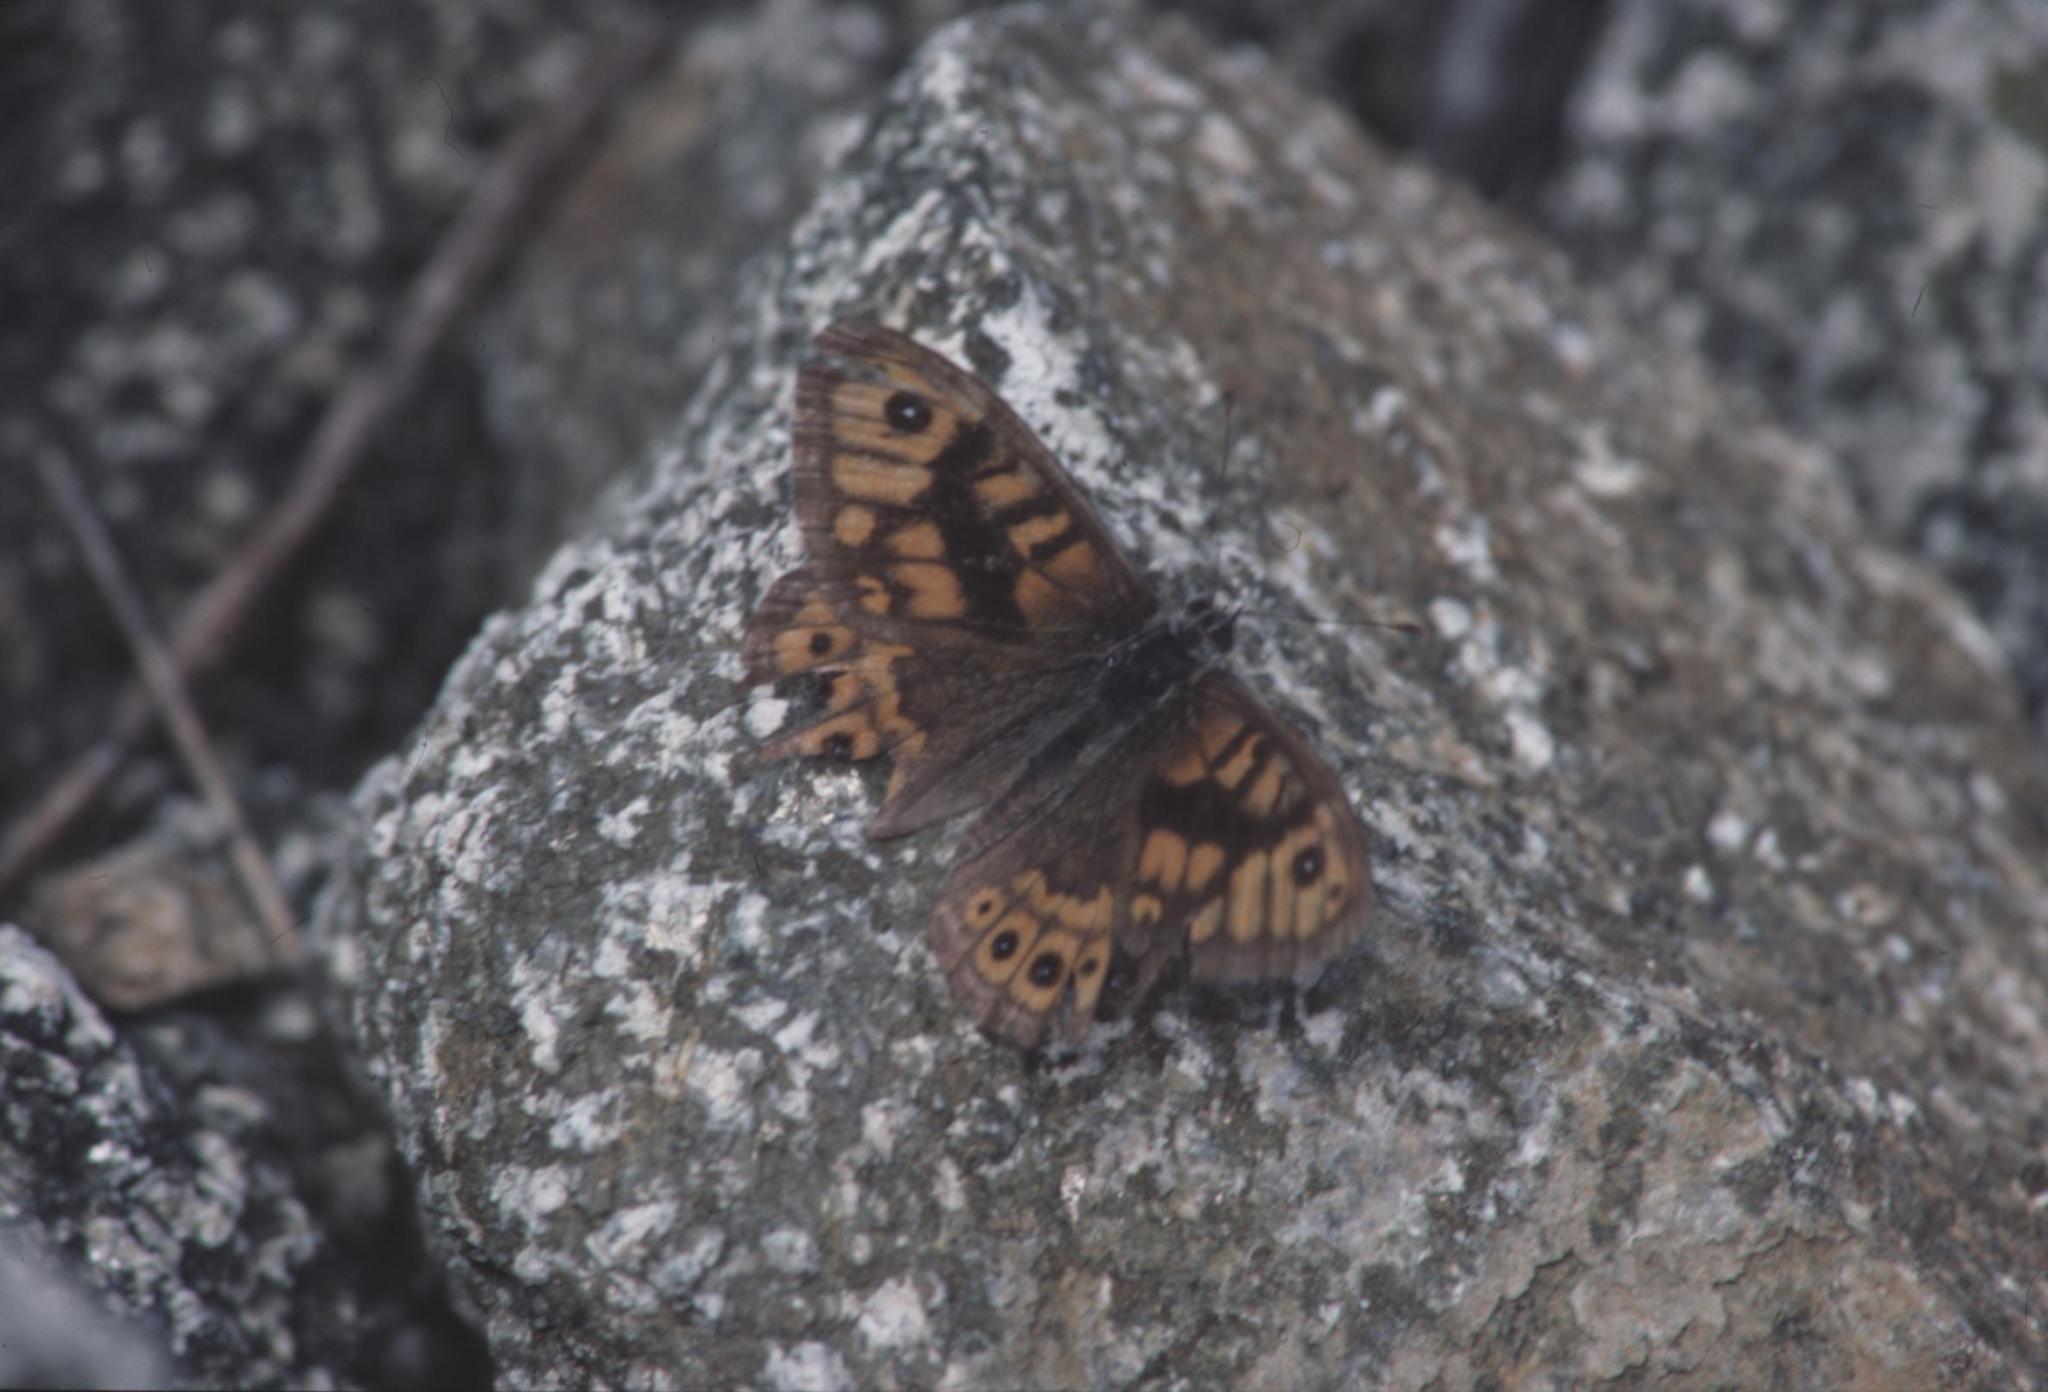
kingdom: Animalia
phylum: Arthropoda
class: Insecta
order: Lepidoptera
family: Nymphalidae
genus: Pararge
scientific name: Pararge Lasiommata megera
